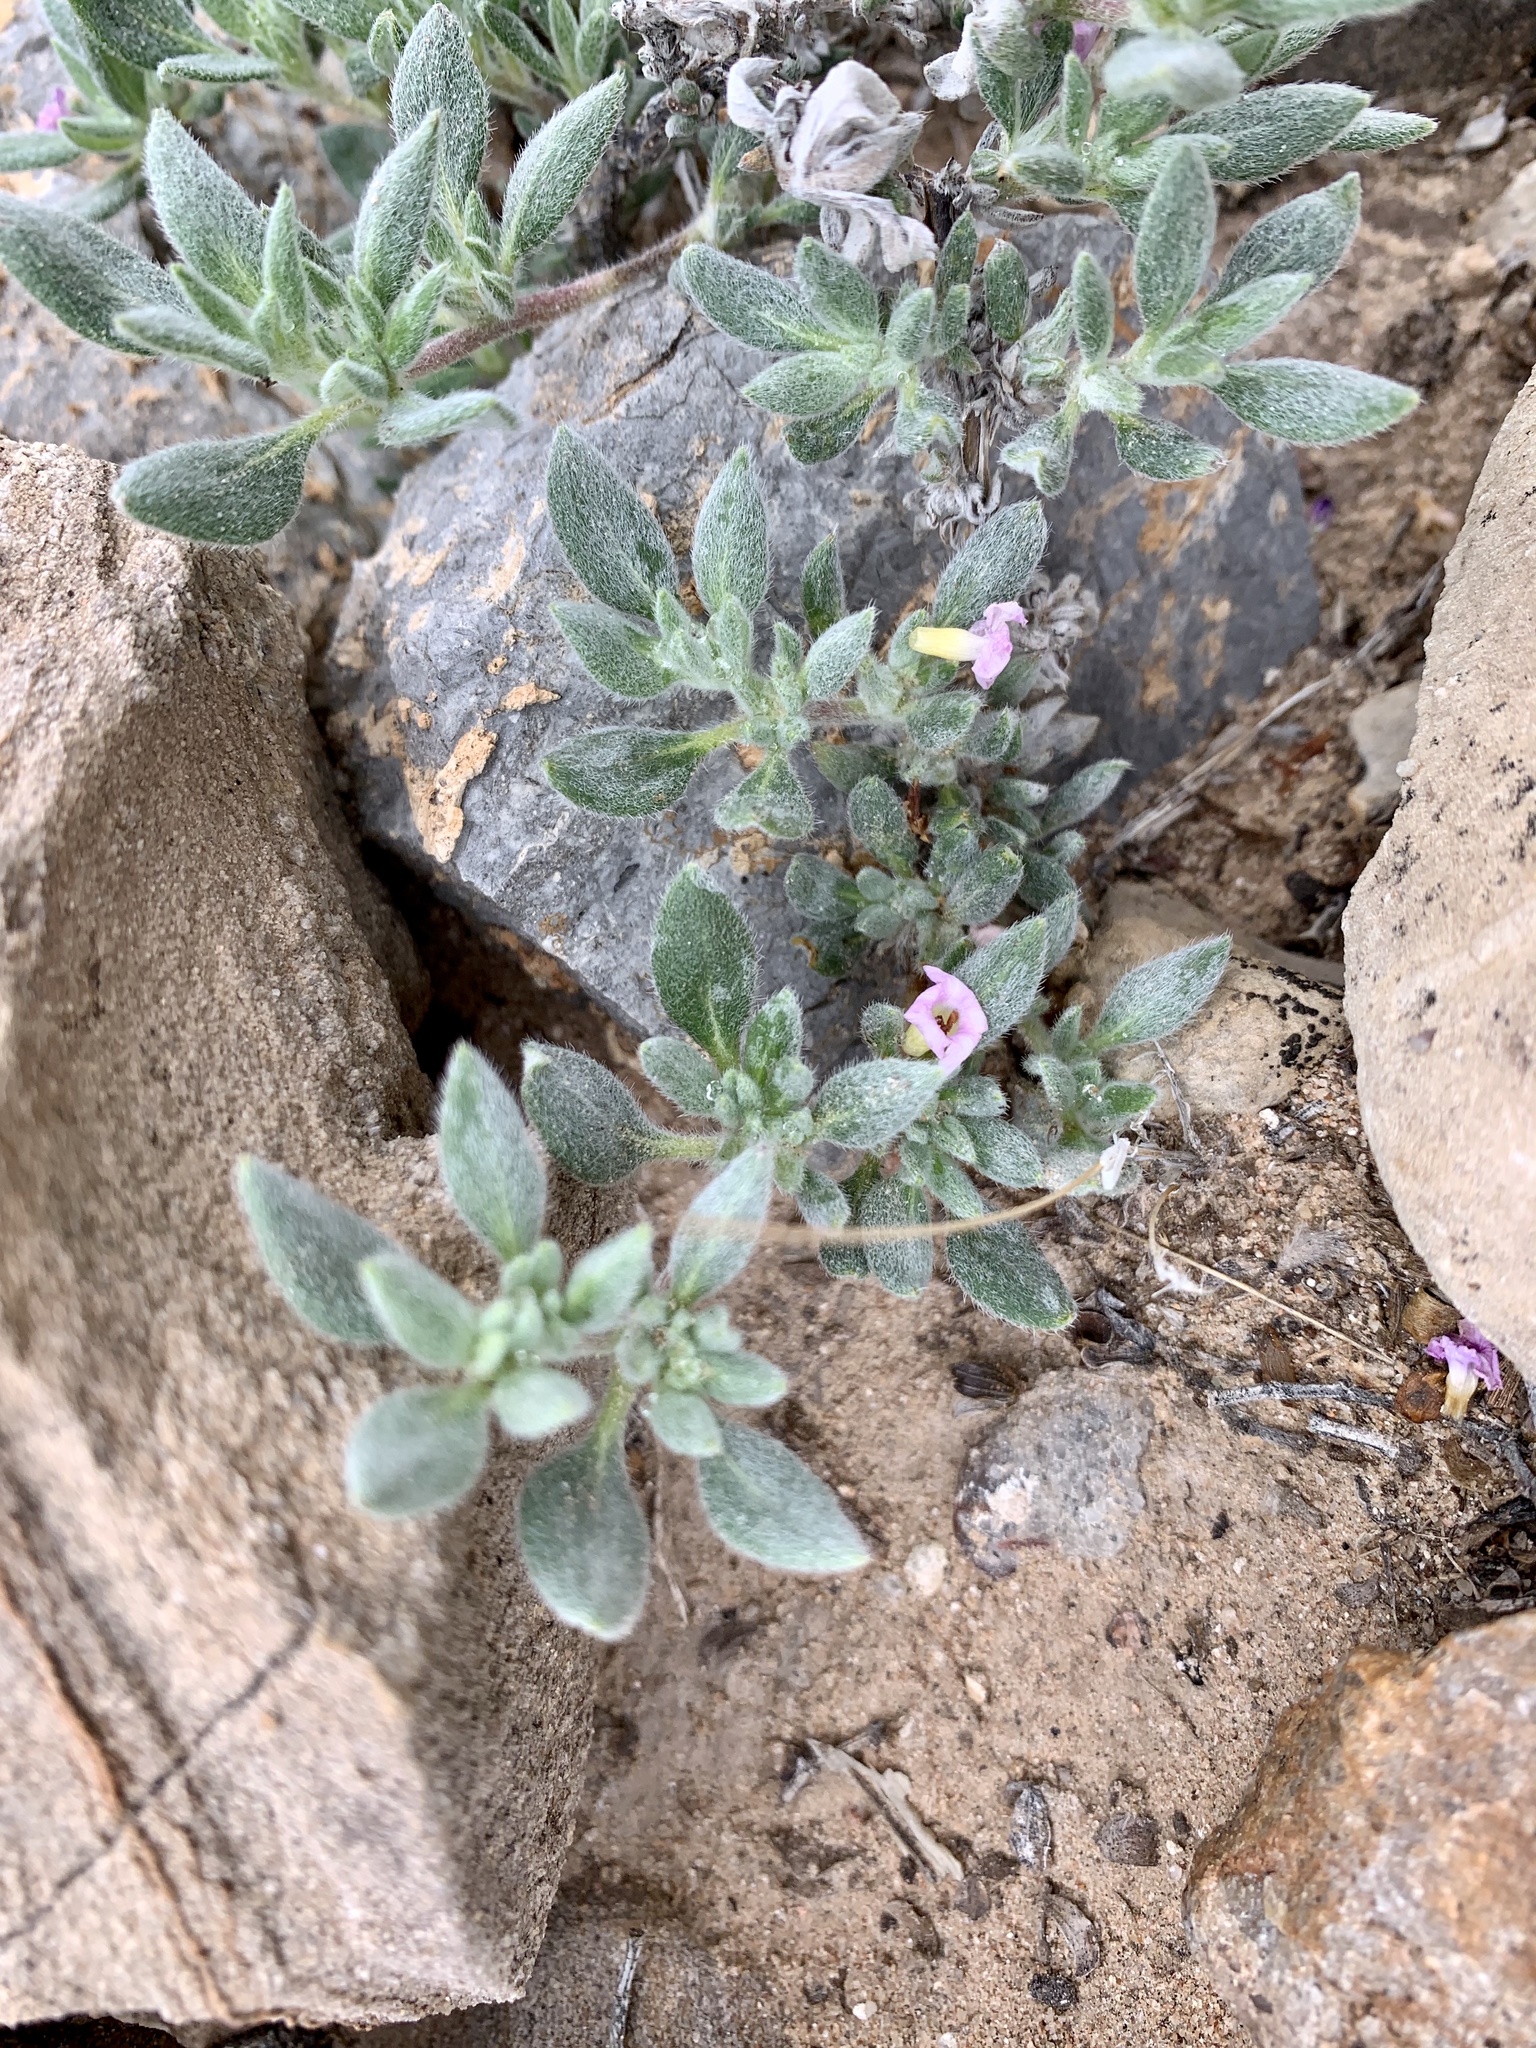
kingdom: Plantae
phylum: Tracheophyta
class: Magnoliopsida
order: Boraginales
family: Ehretiaceae
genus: Tiquilia
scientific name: Tiquilia canescens
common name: Hairy tiquilia
